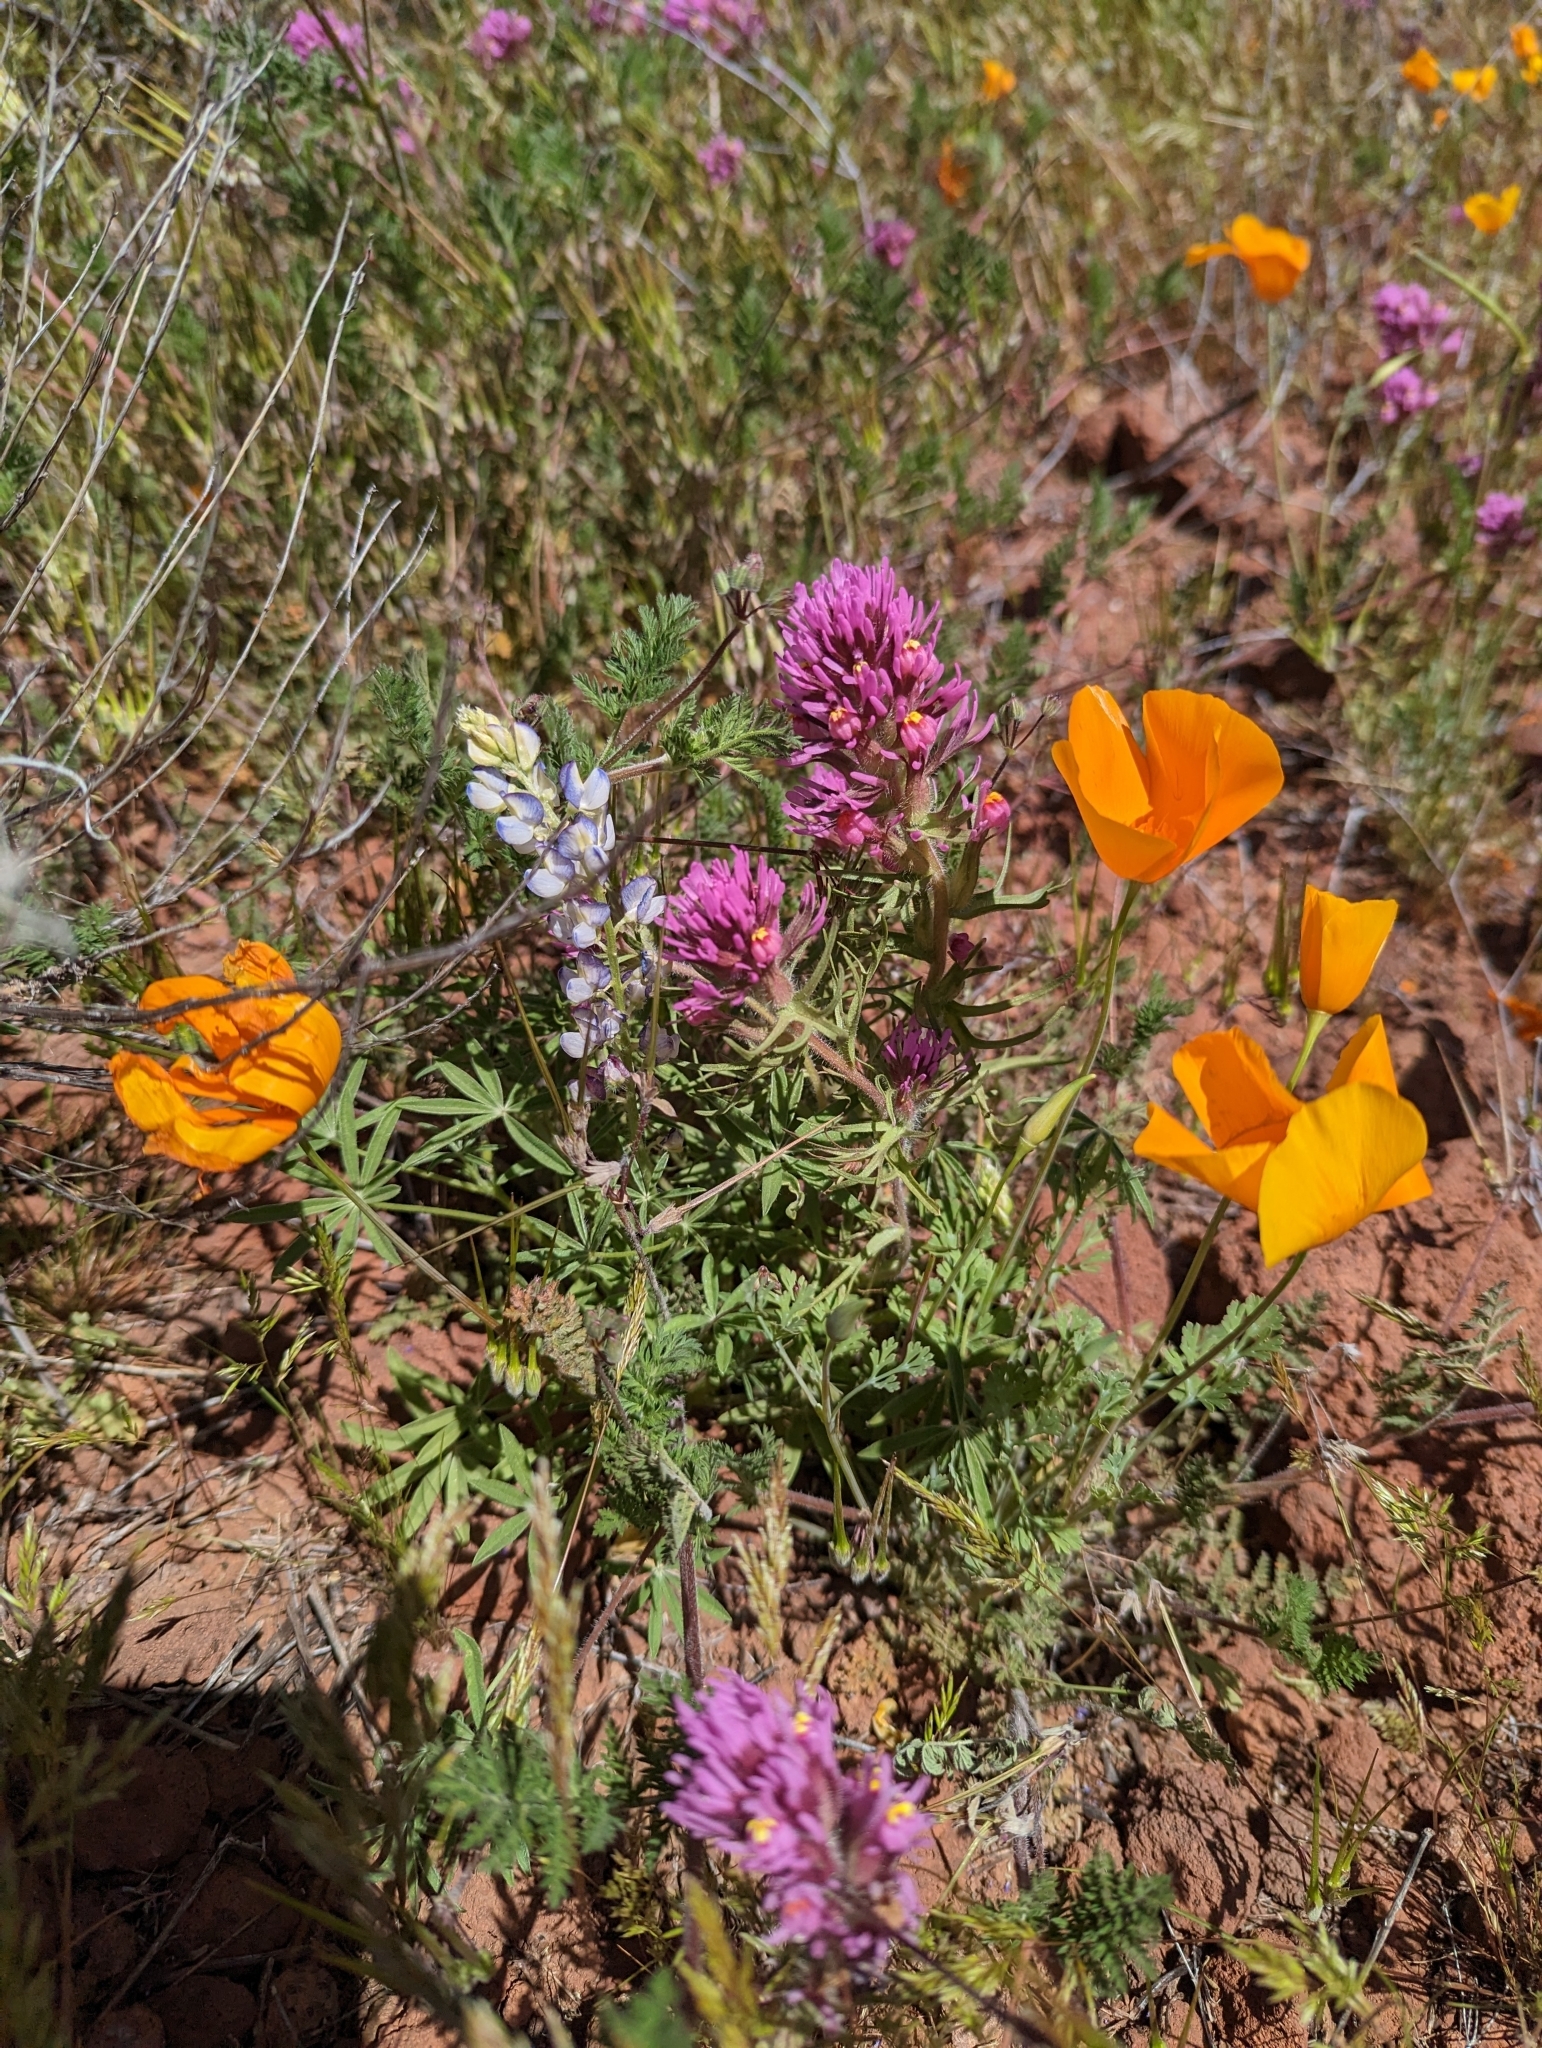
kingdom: Plantae
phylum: Tracheophyta
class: Magnoliopsida
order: Lamiales
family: Orobanchaceae
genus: Castilleja
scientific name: Castilleja exserta
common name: Purple owl-clover
